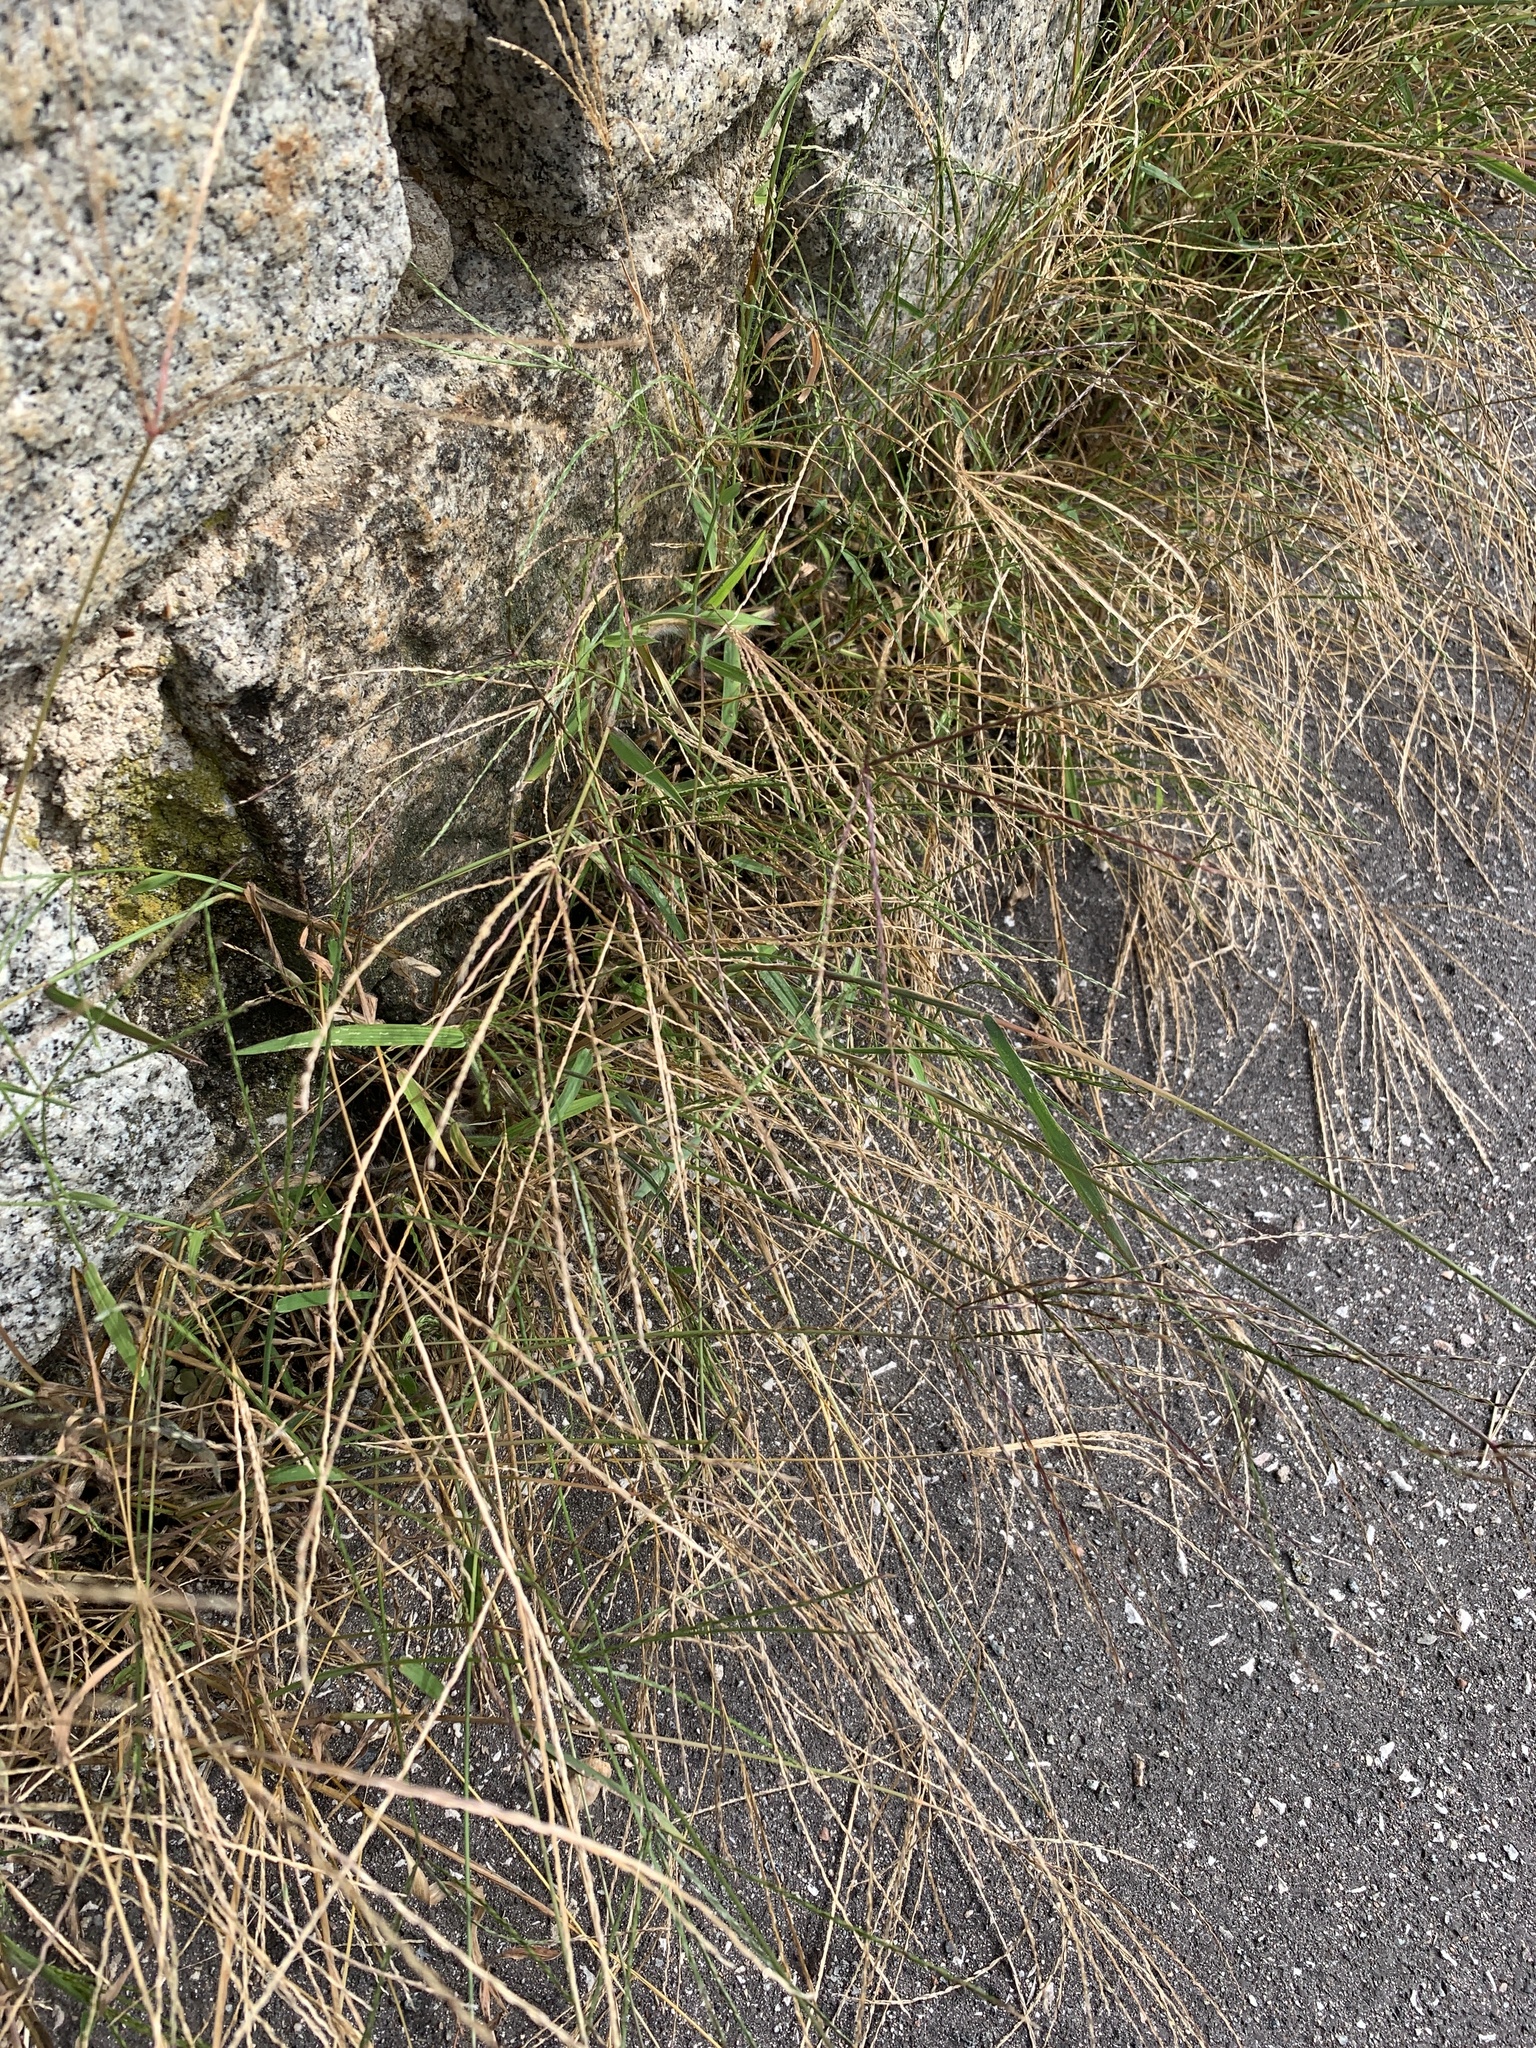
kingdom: Plantae
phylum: Tracheophyta
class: Liliopsida
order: Poales
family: Poaceae
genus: Digitaria
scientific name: Digitaria sanguinalis
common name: Hairy crabgrass
